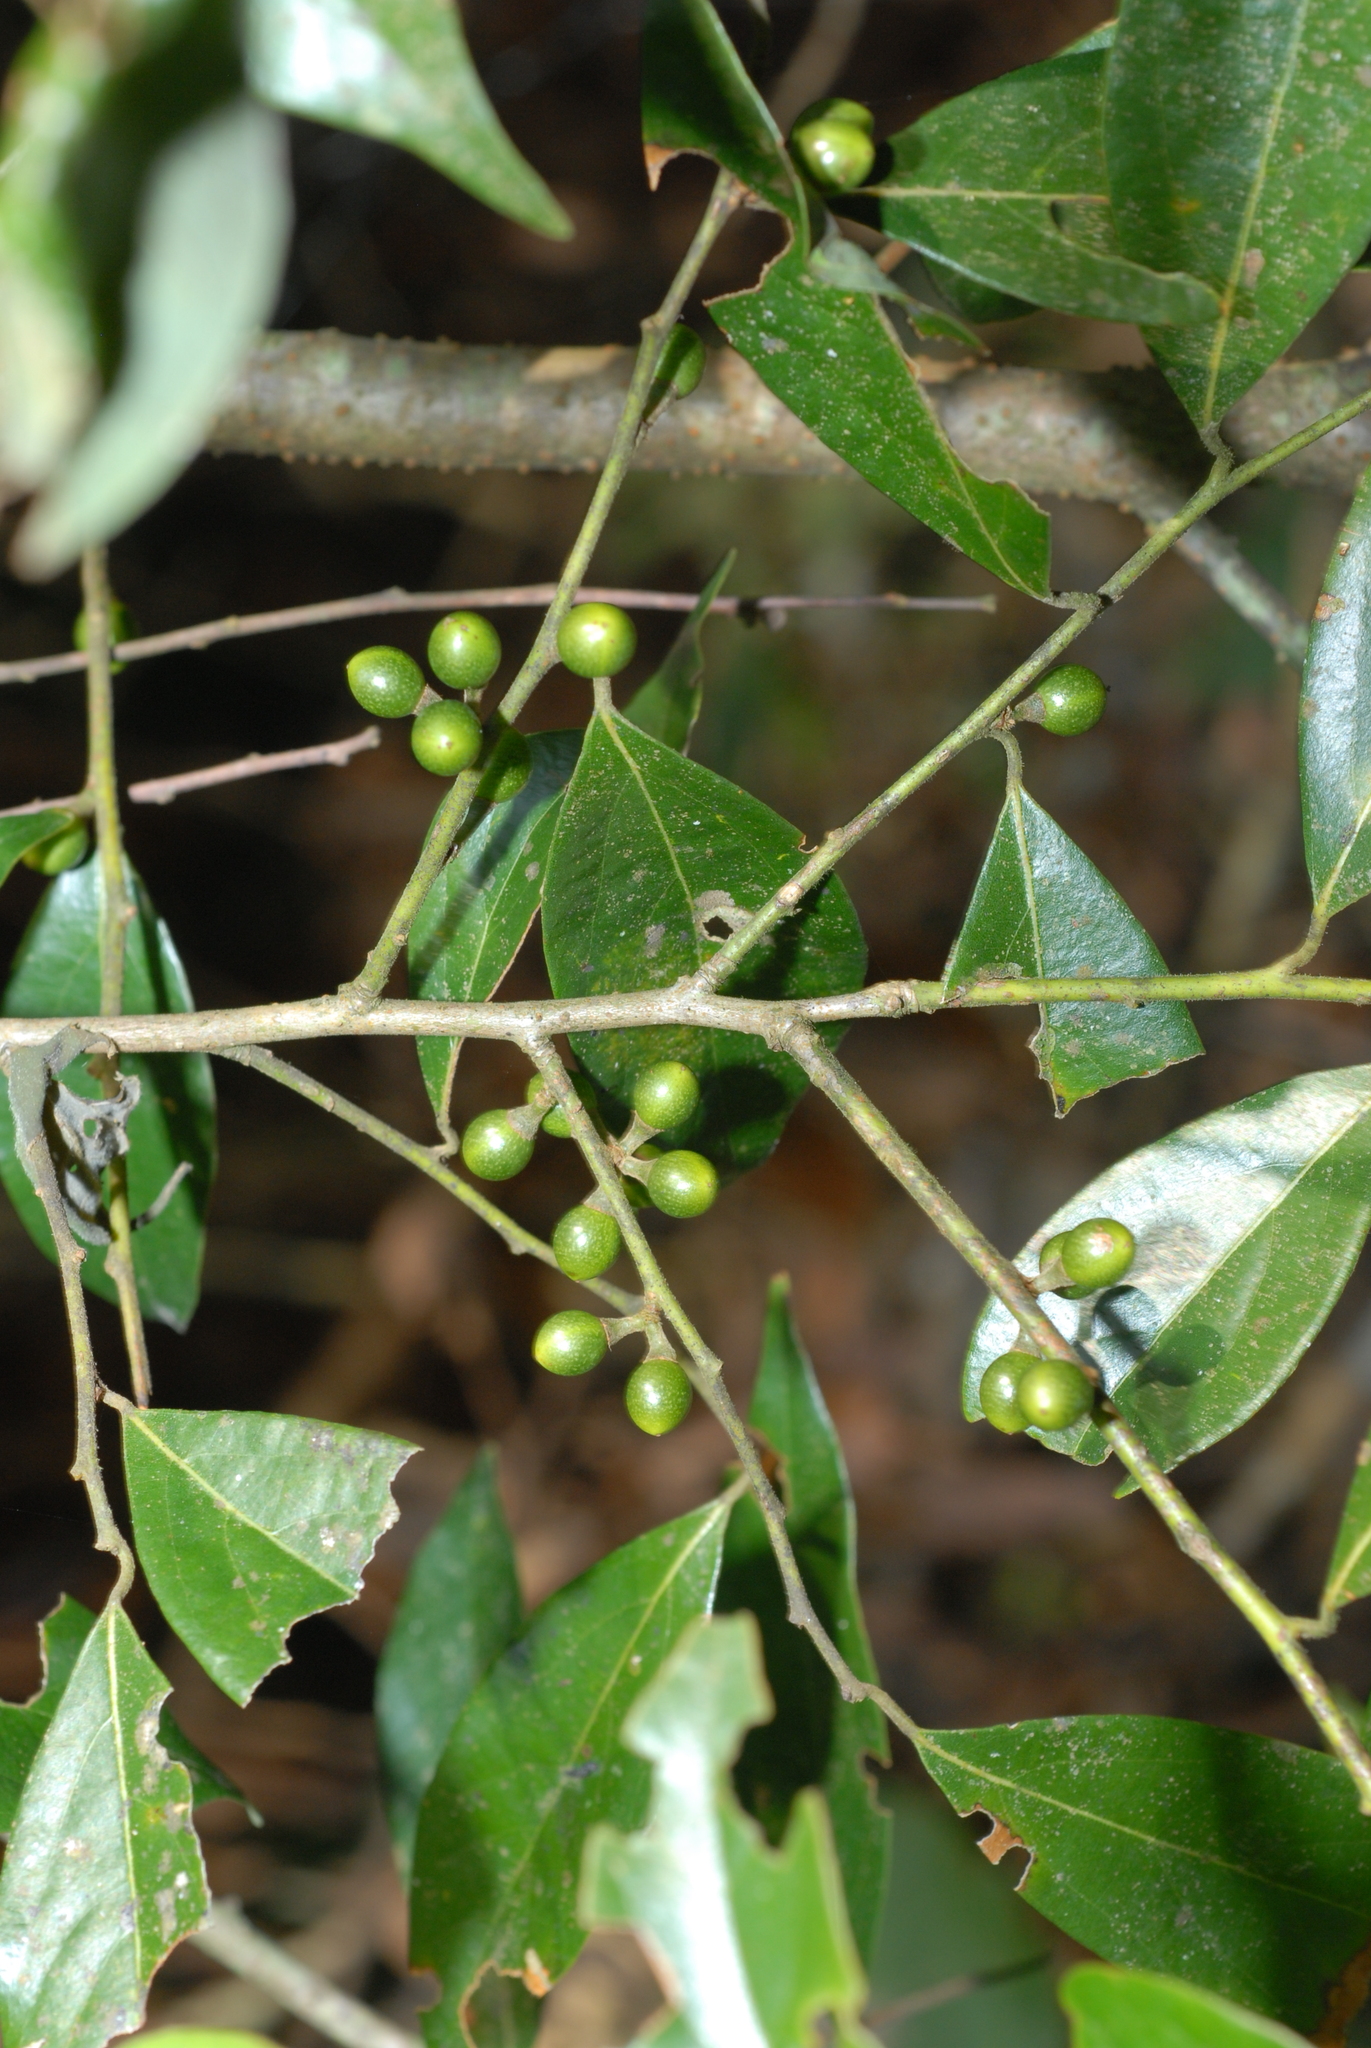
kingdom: Plantae
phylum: Tracheophyta
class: Magnoliopsida
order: Laurales
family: Lauraceae
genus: Lindera
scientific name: Lindera communis
